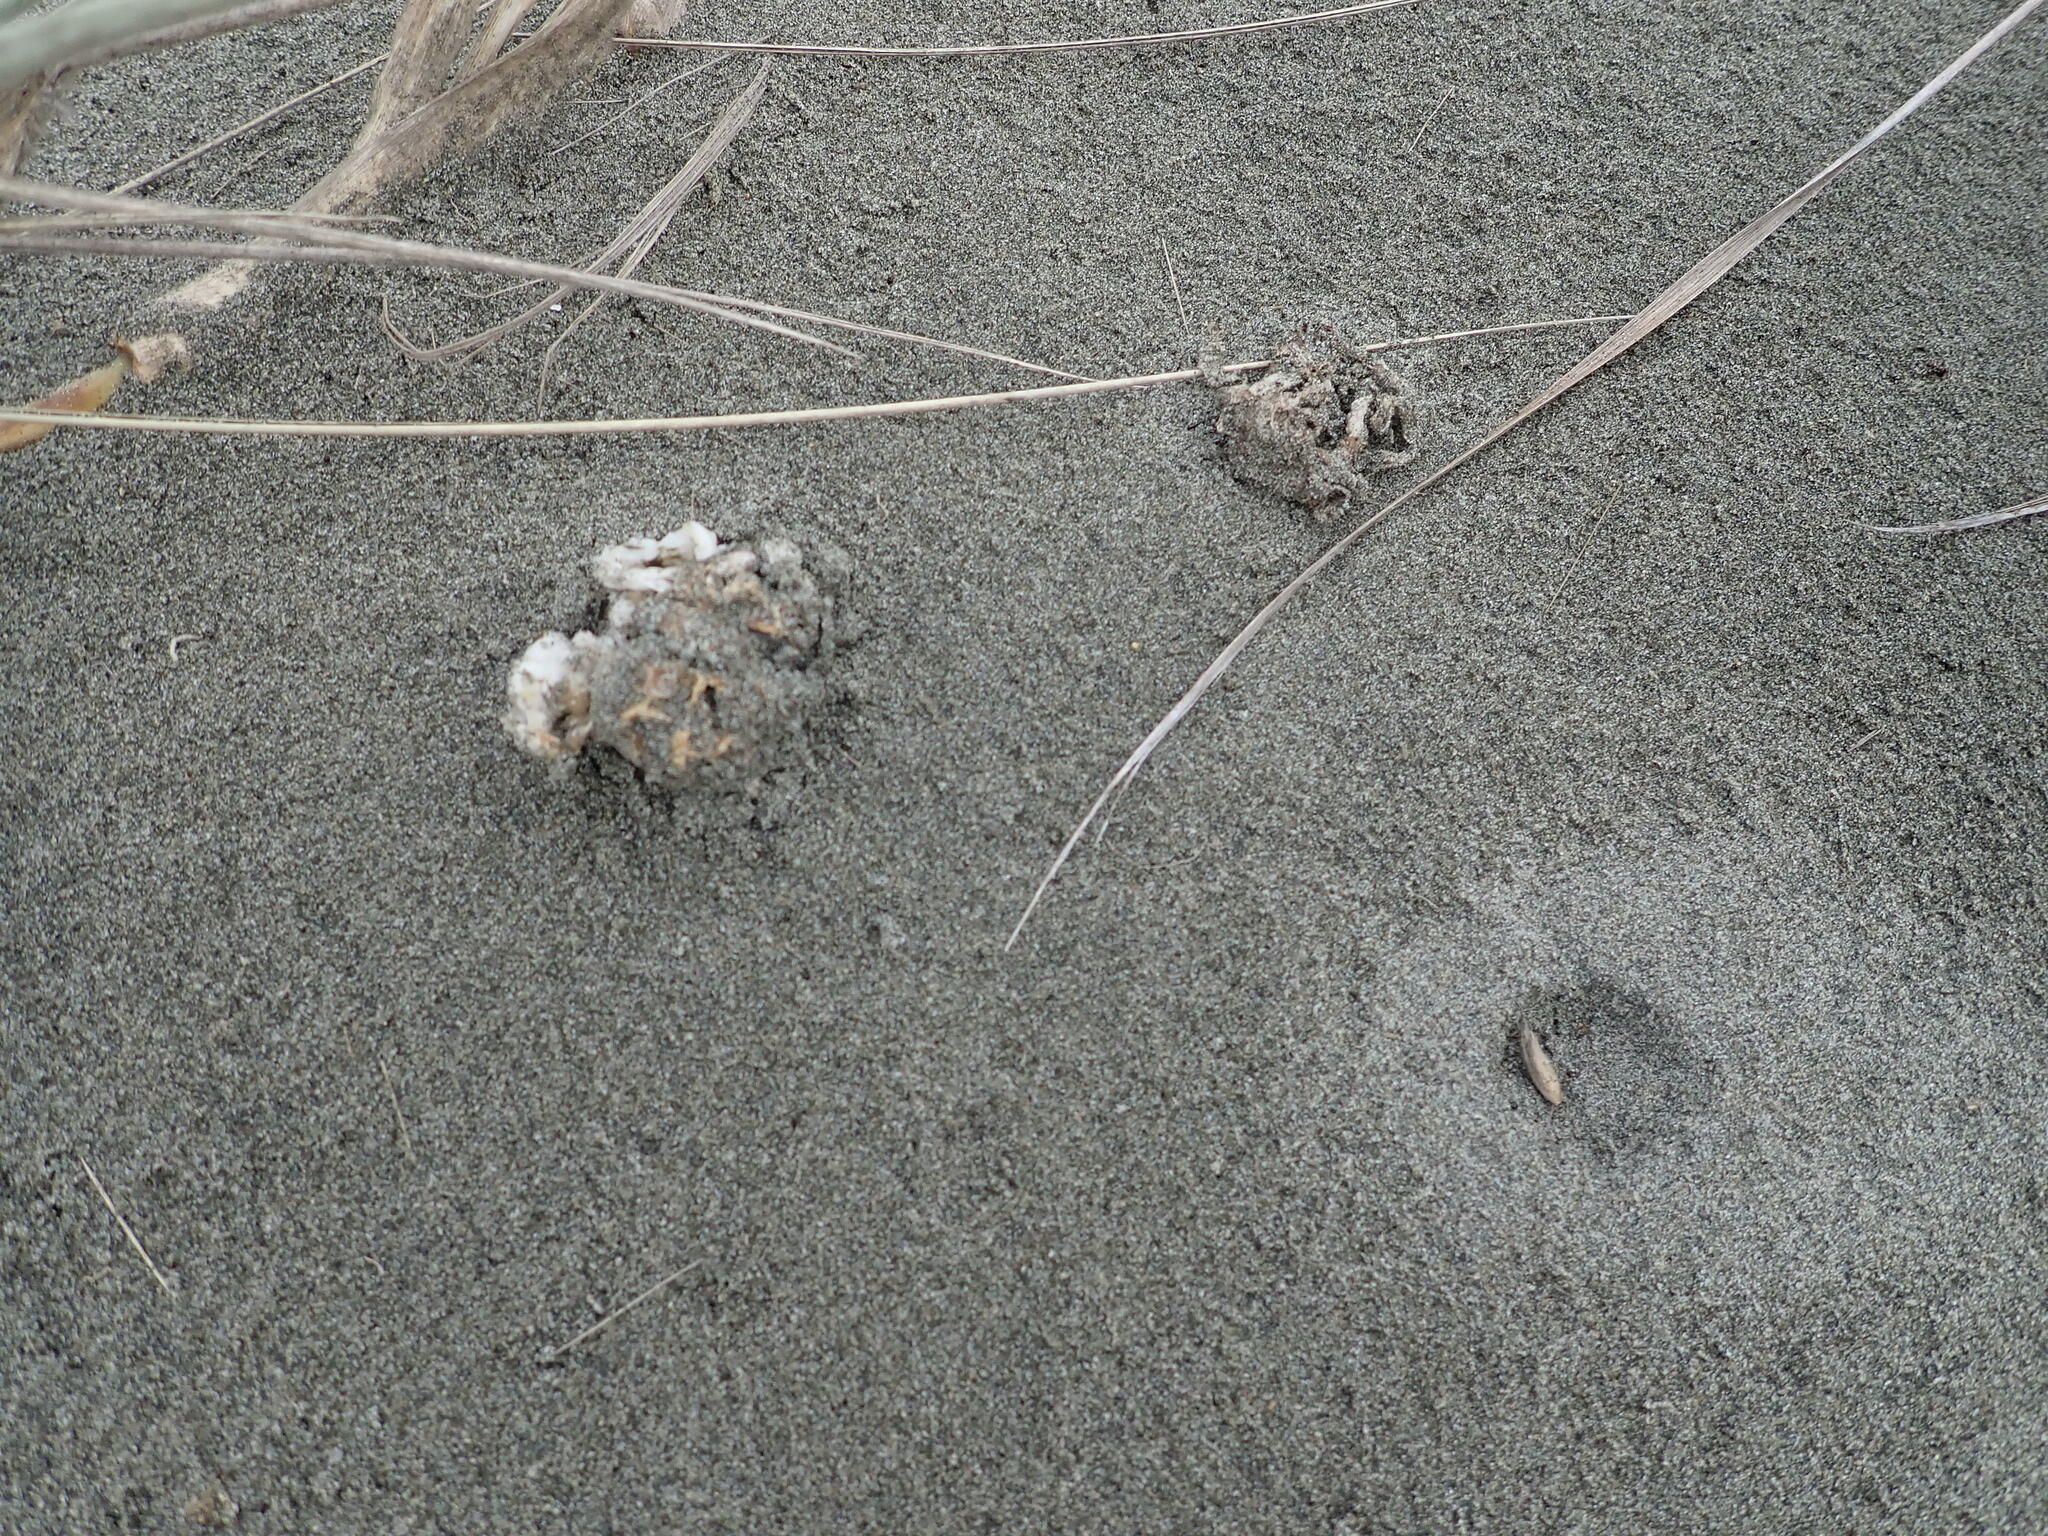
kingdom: Fungi
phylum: Basidiomycota
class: Agaricomycetes
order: Phallales
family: Phallaceae
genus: Ileodictyon
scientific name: Ileodictyon cibarium
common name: Basket fungus
